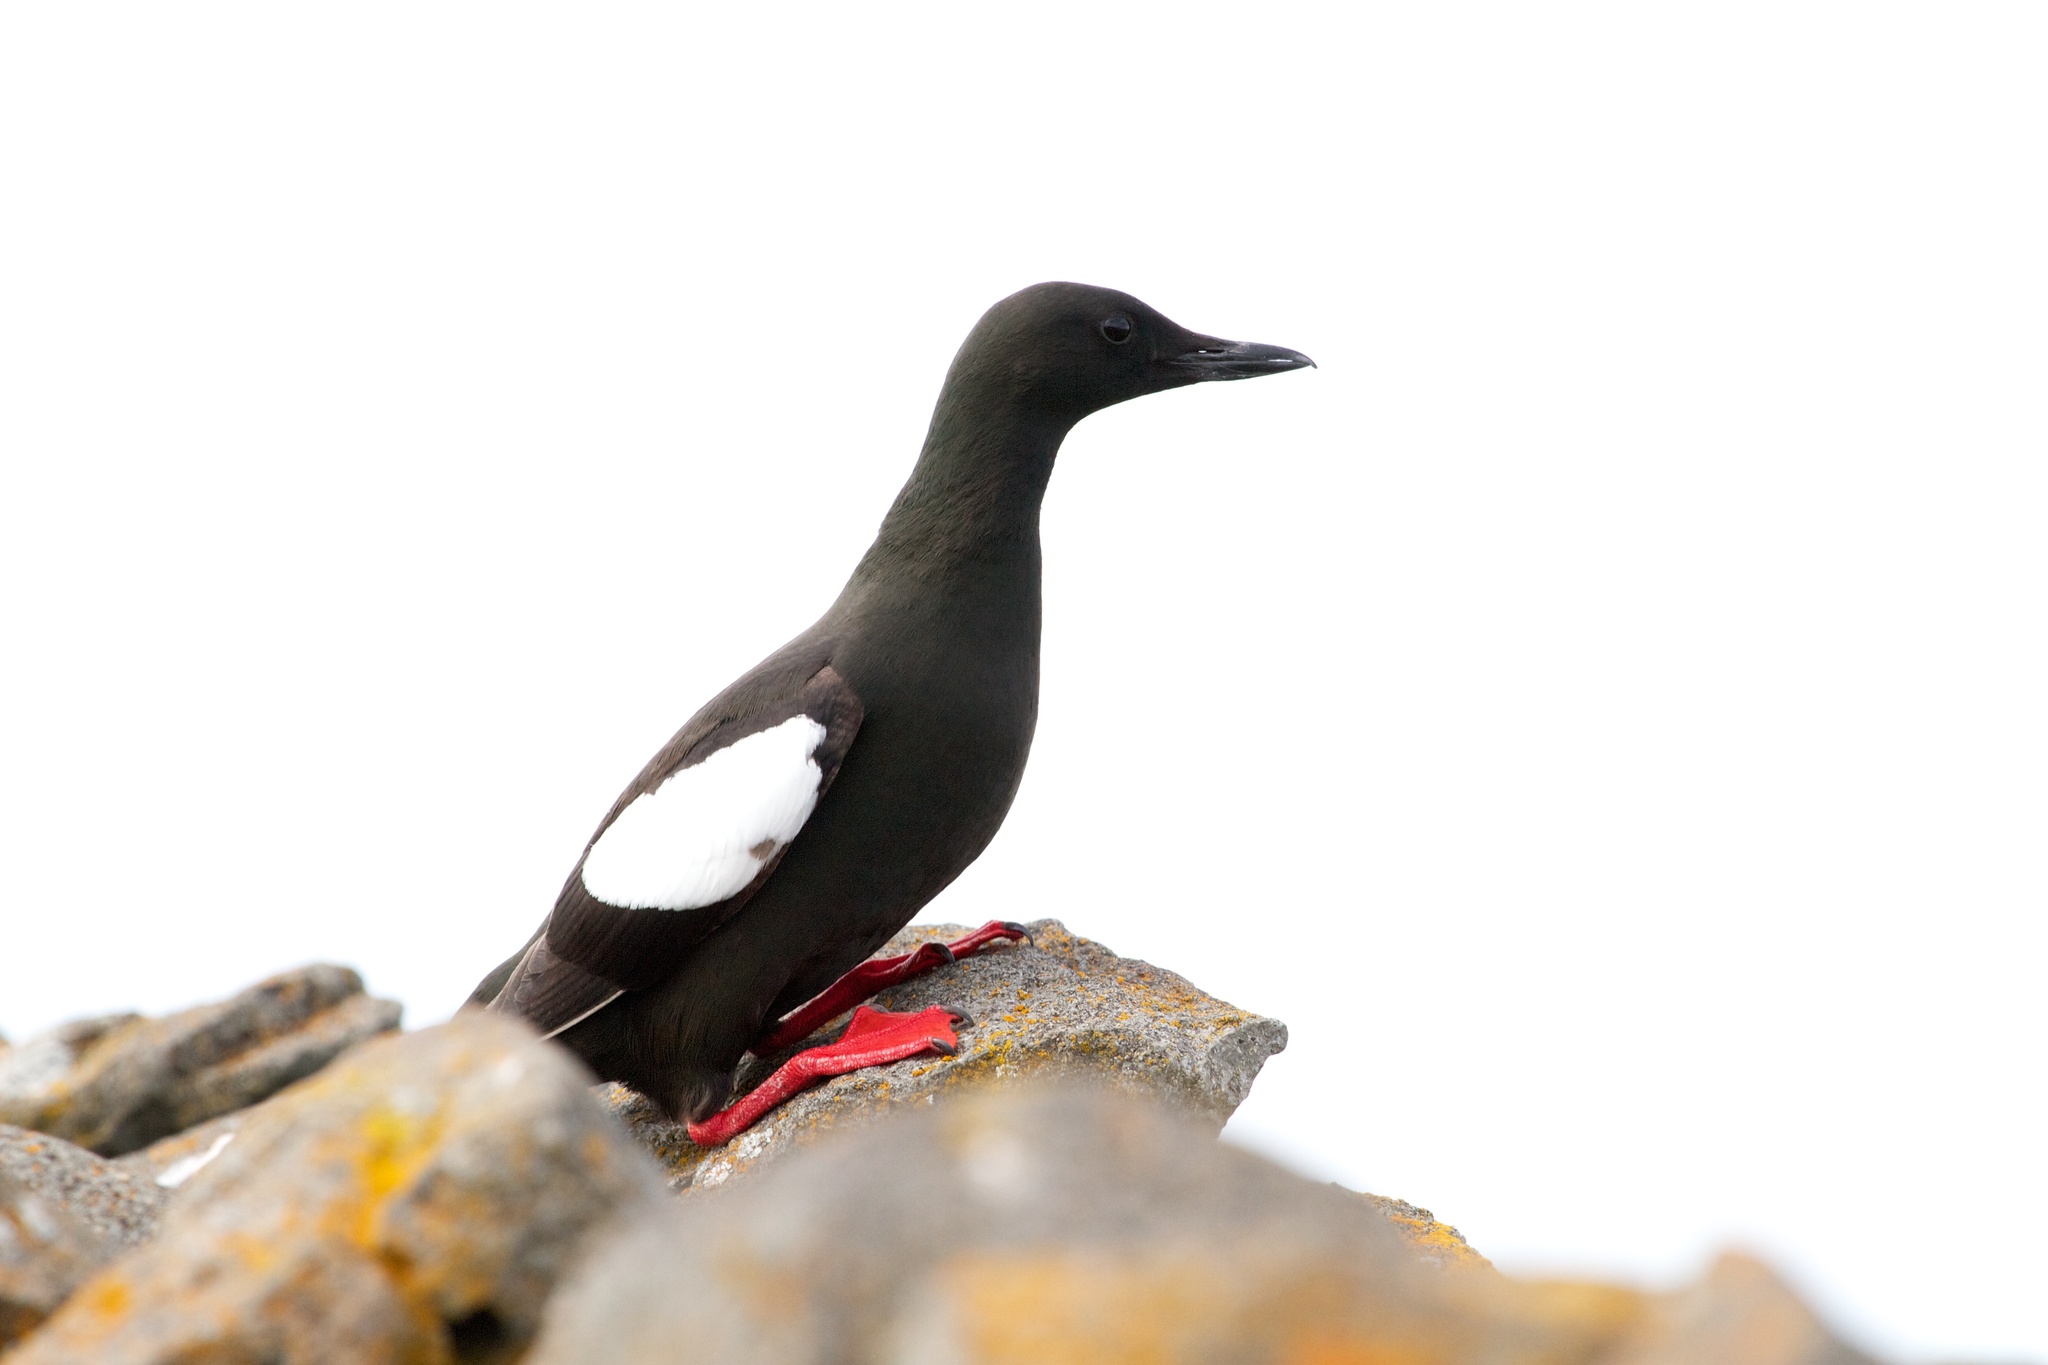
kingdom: Animalia
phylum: Chordata
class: Aves
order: Charadriiformes
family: Alcidae
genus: Cepphus
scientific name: Cepphus grylle
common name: Black guillemot
